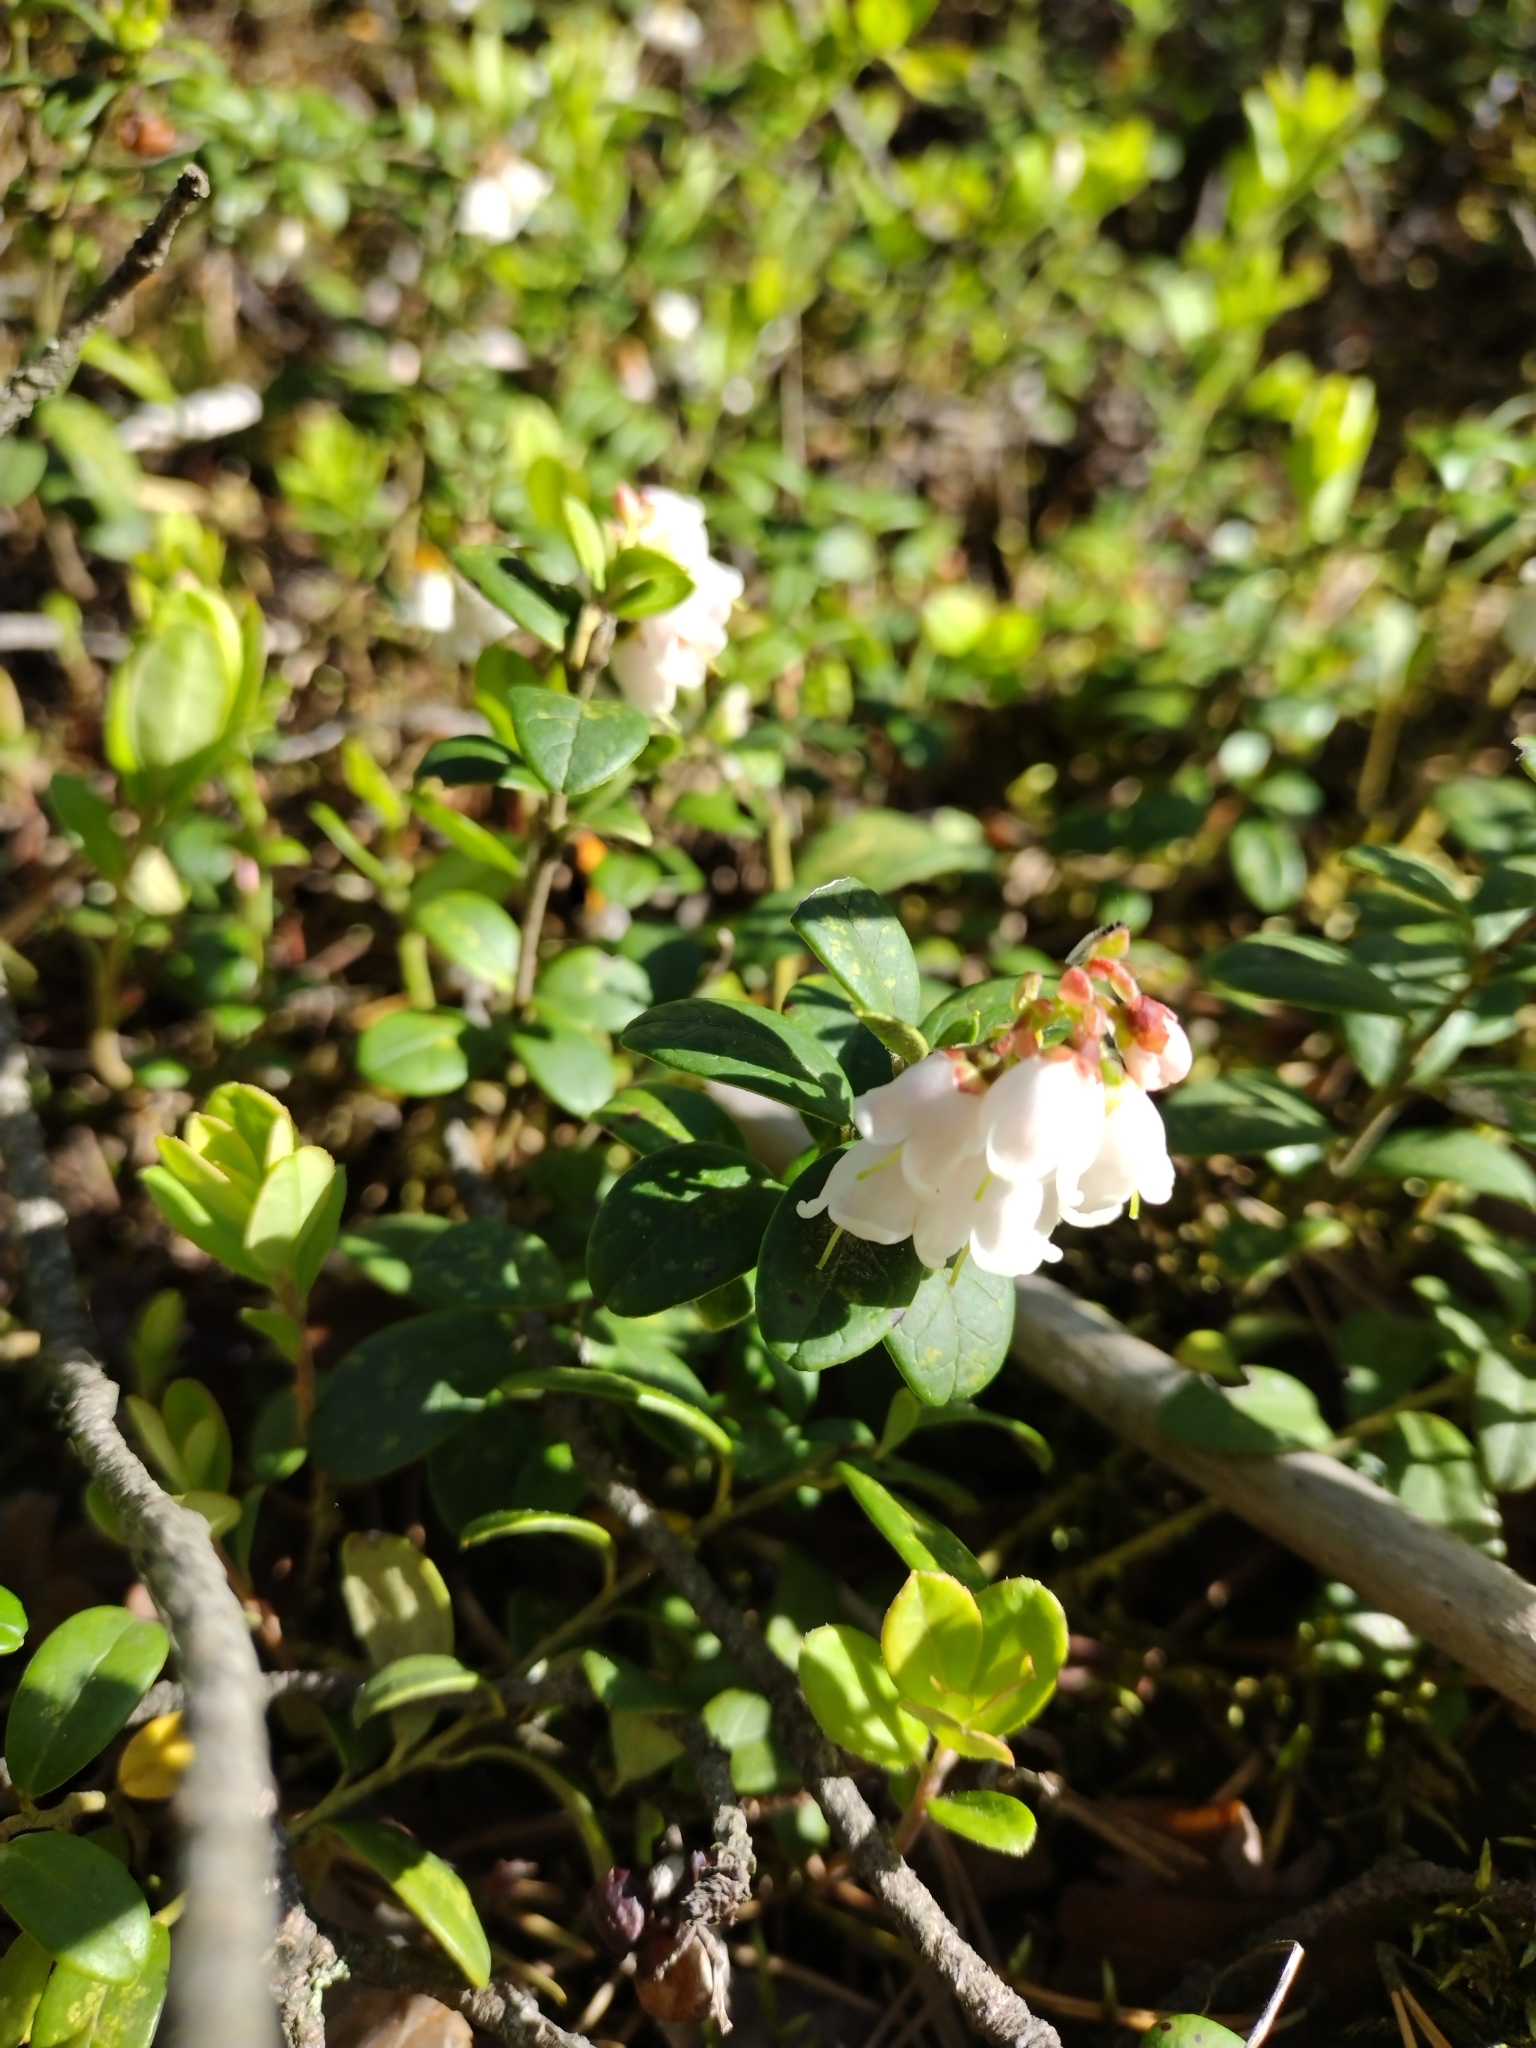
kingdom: Plantae
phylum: Tracheophyta
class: Magnoliopsida
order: Ericales
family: Ericaceae
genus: Vaccinium
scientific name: Vaccinium vitis-idaea
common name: Cowberry
